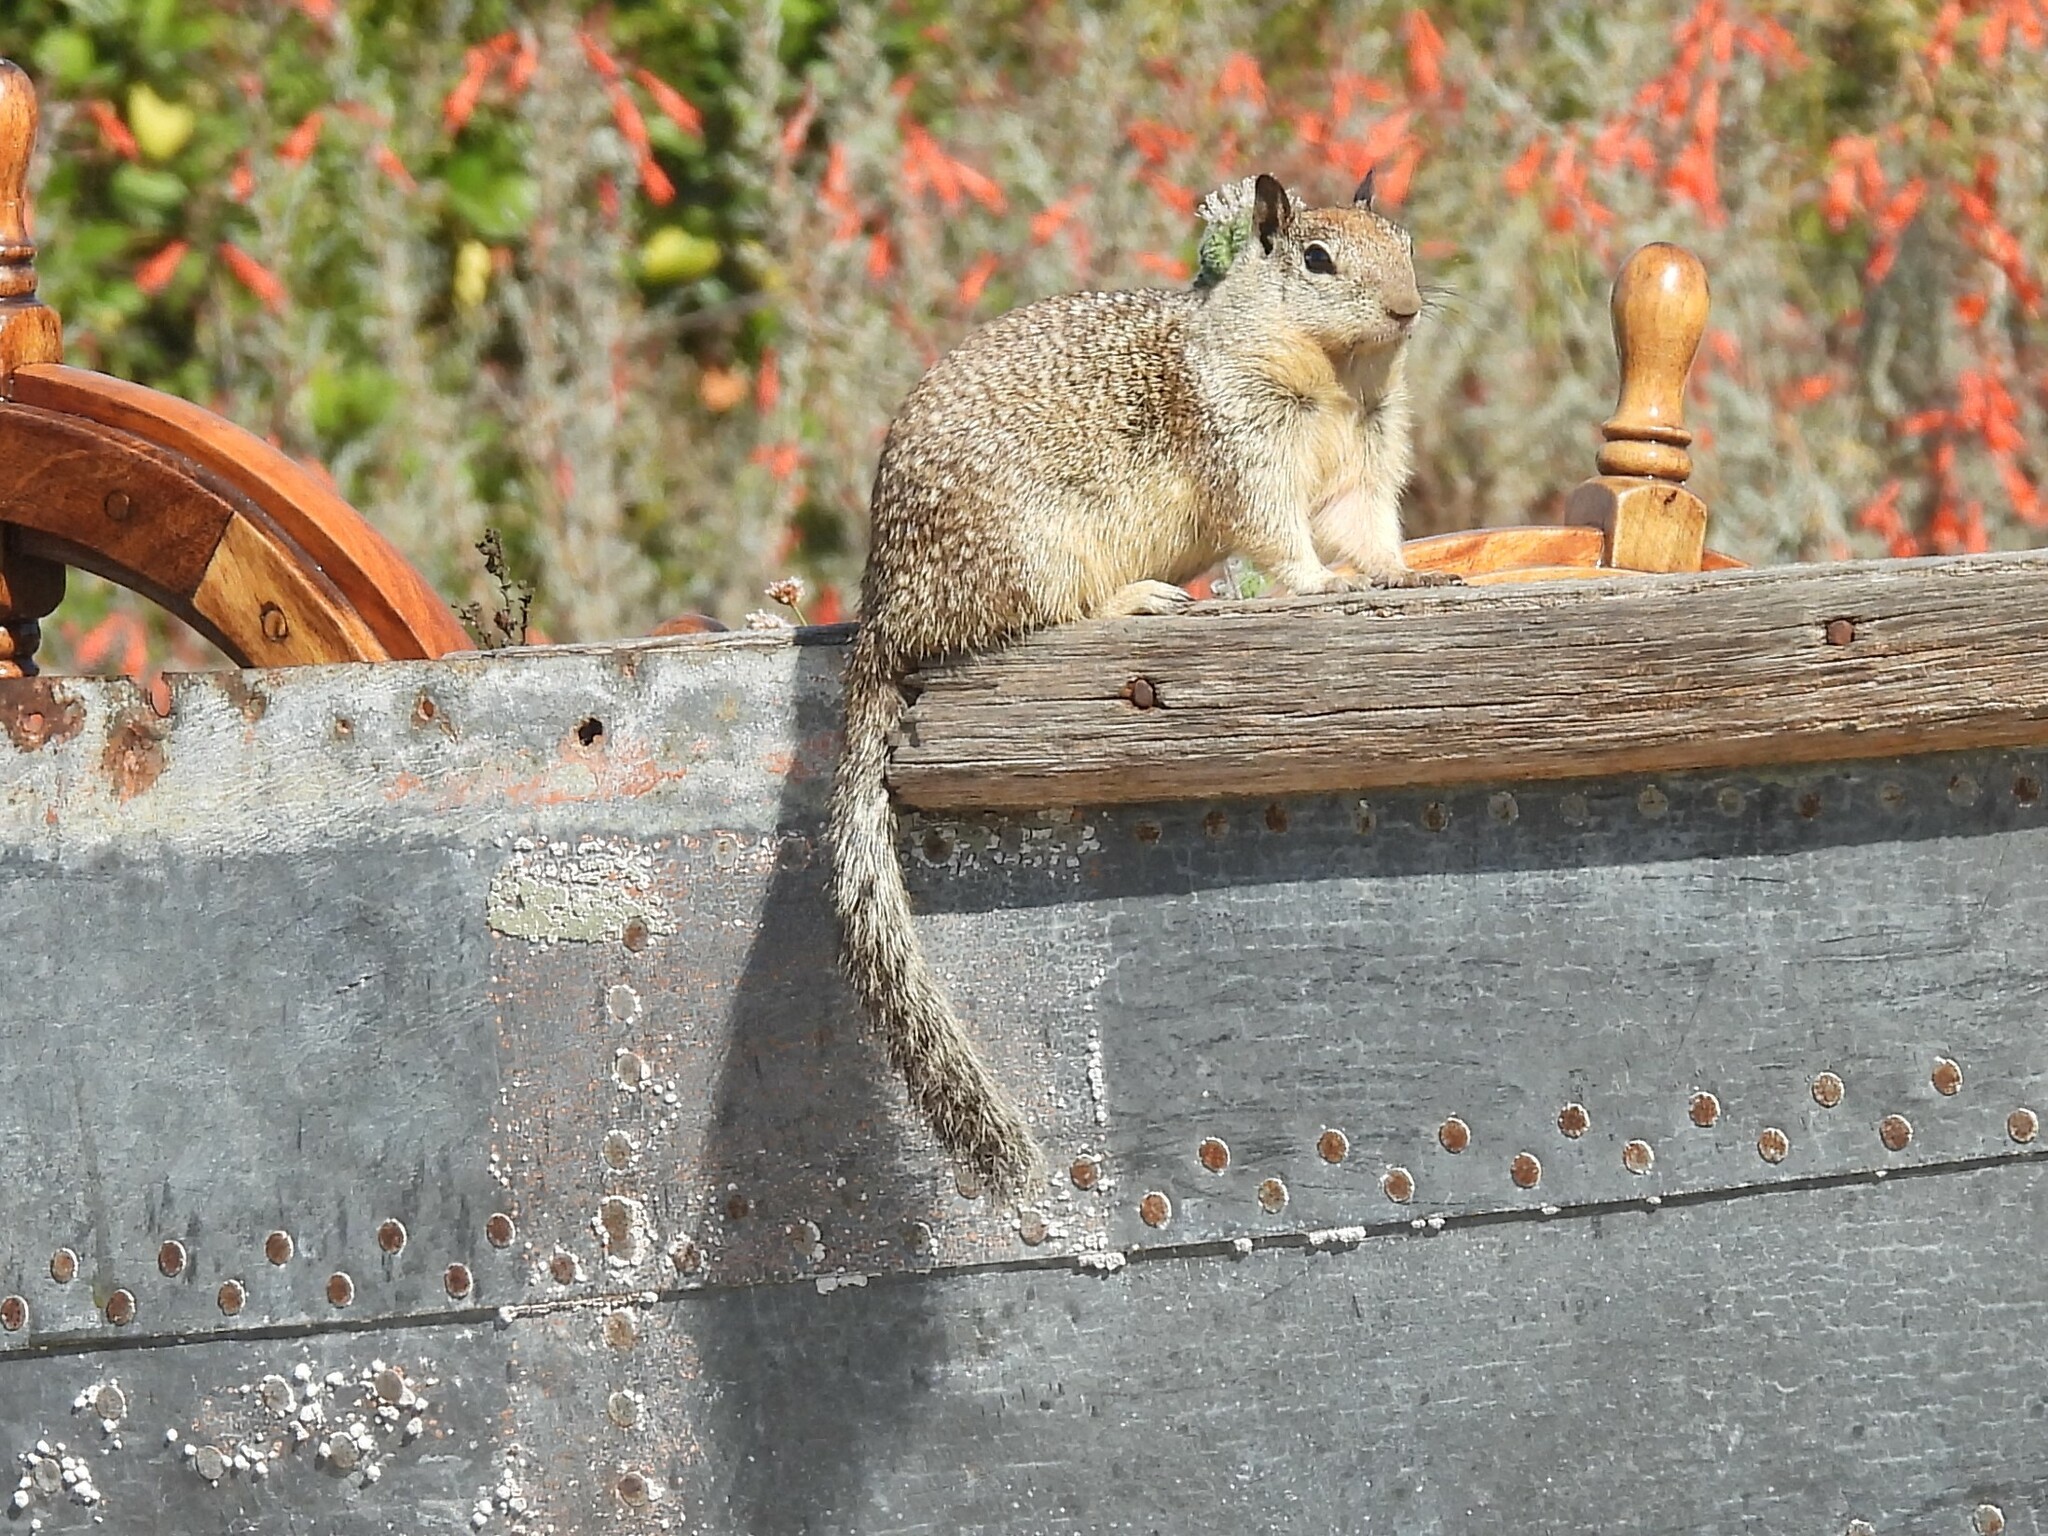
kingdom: Animalia
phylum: Chordata
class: Mammalia
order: Rodentia
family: Sciuridae
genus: Otospermophilus
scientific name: Otospermophilus beecheyi
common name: California ground squirrel
